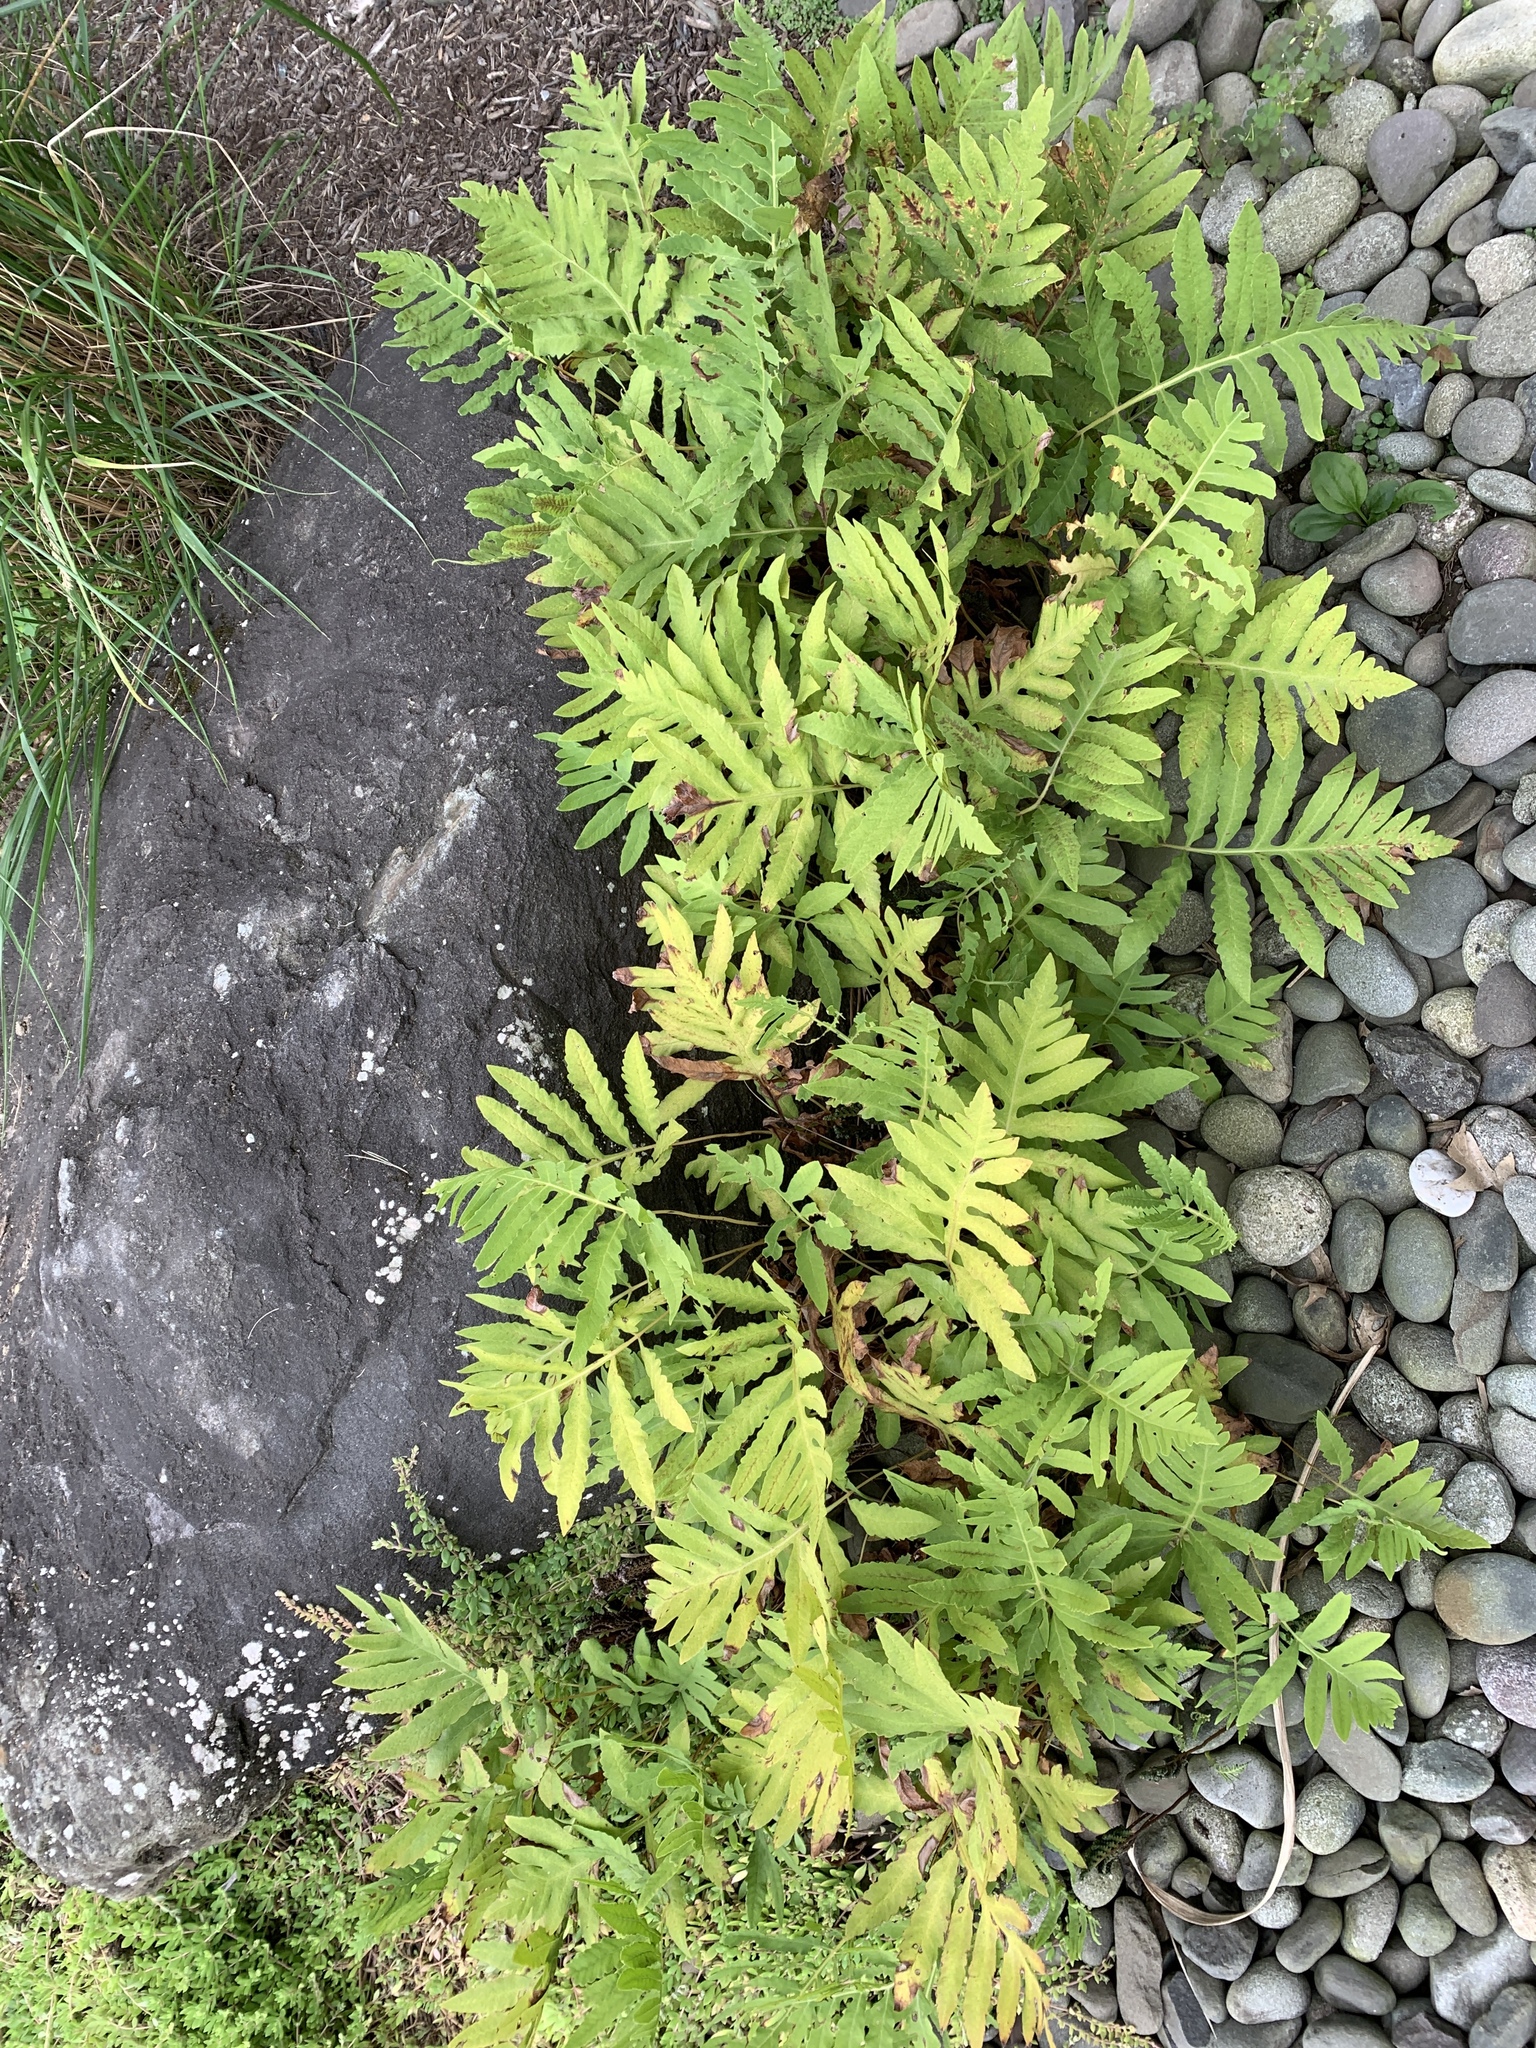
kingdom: Plantae
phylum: Tracheophyta
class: Polypodiopsida
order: Polypodiales
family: Onocleaceae
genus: Onoclea
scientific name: Onoclea sensibilis
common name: Sensitive fern
